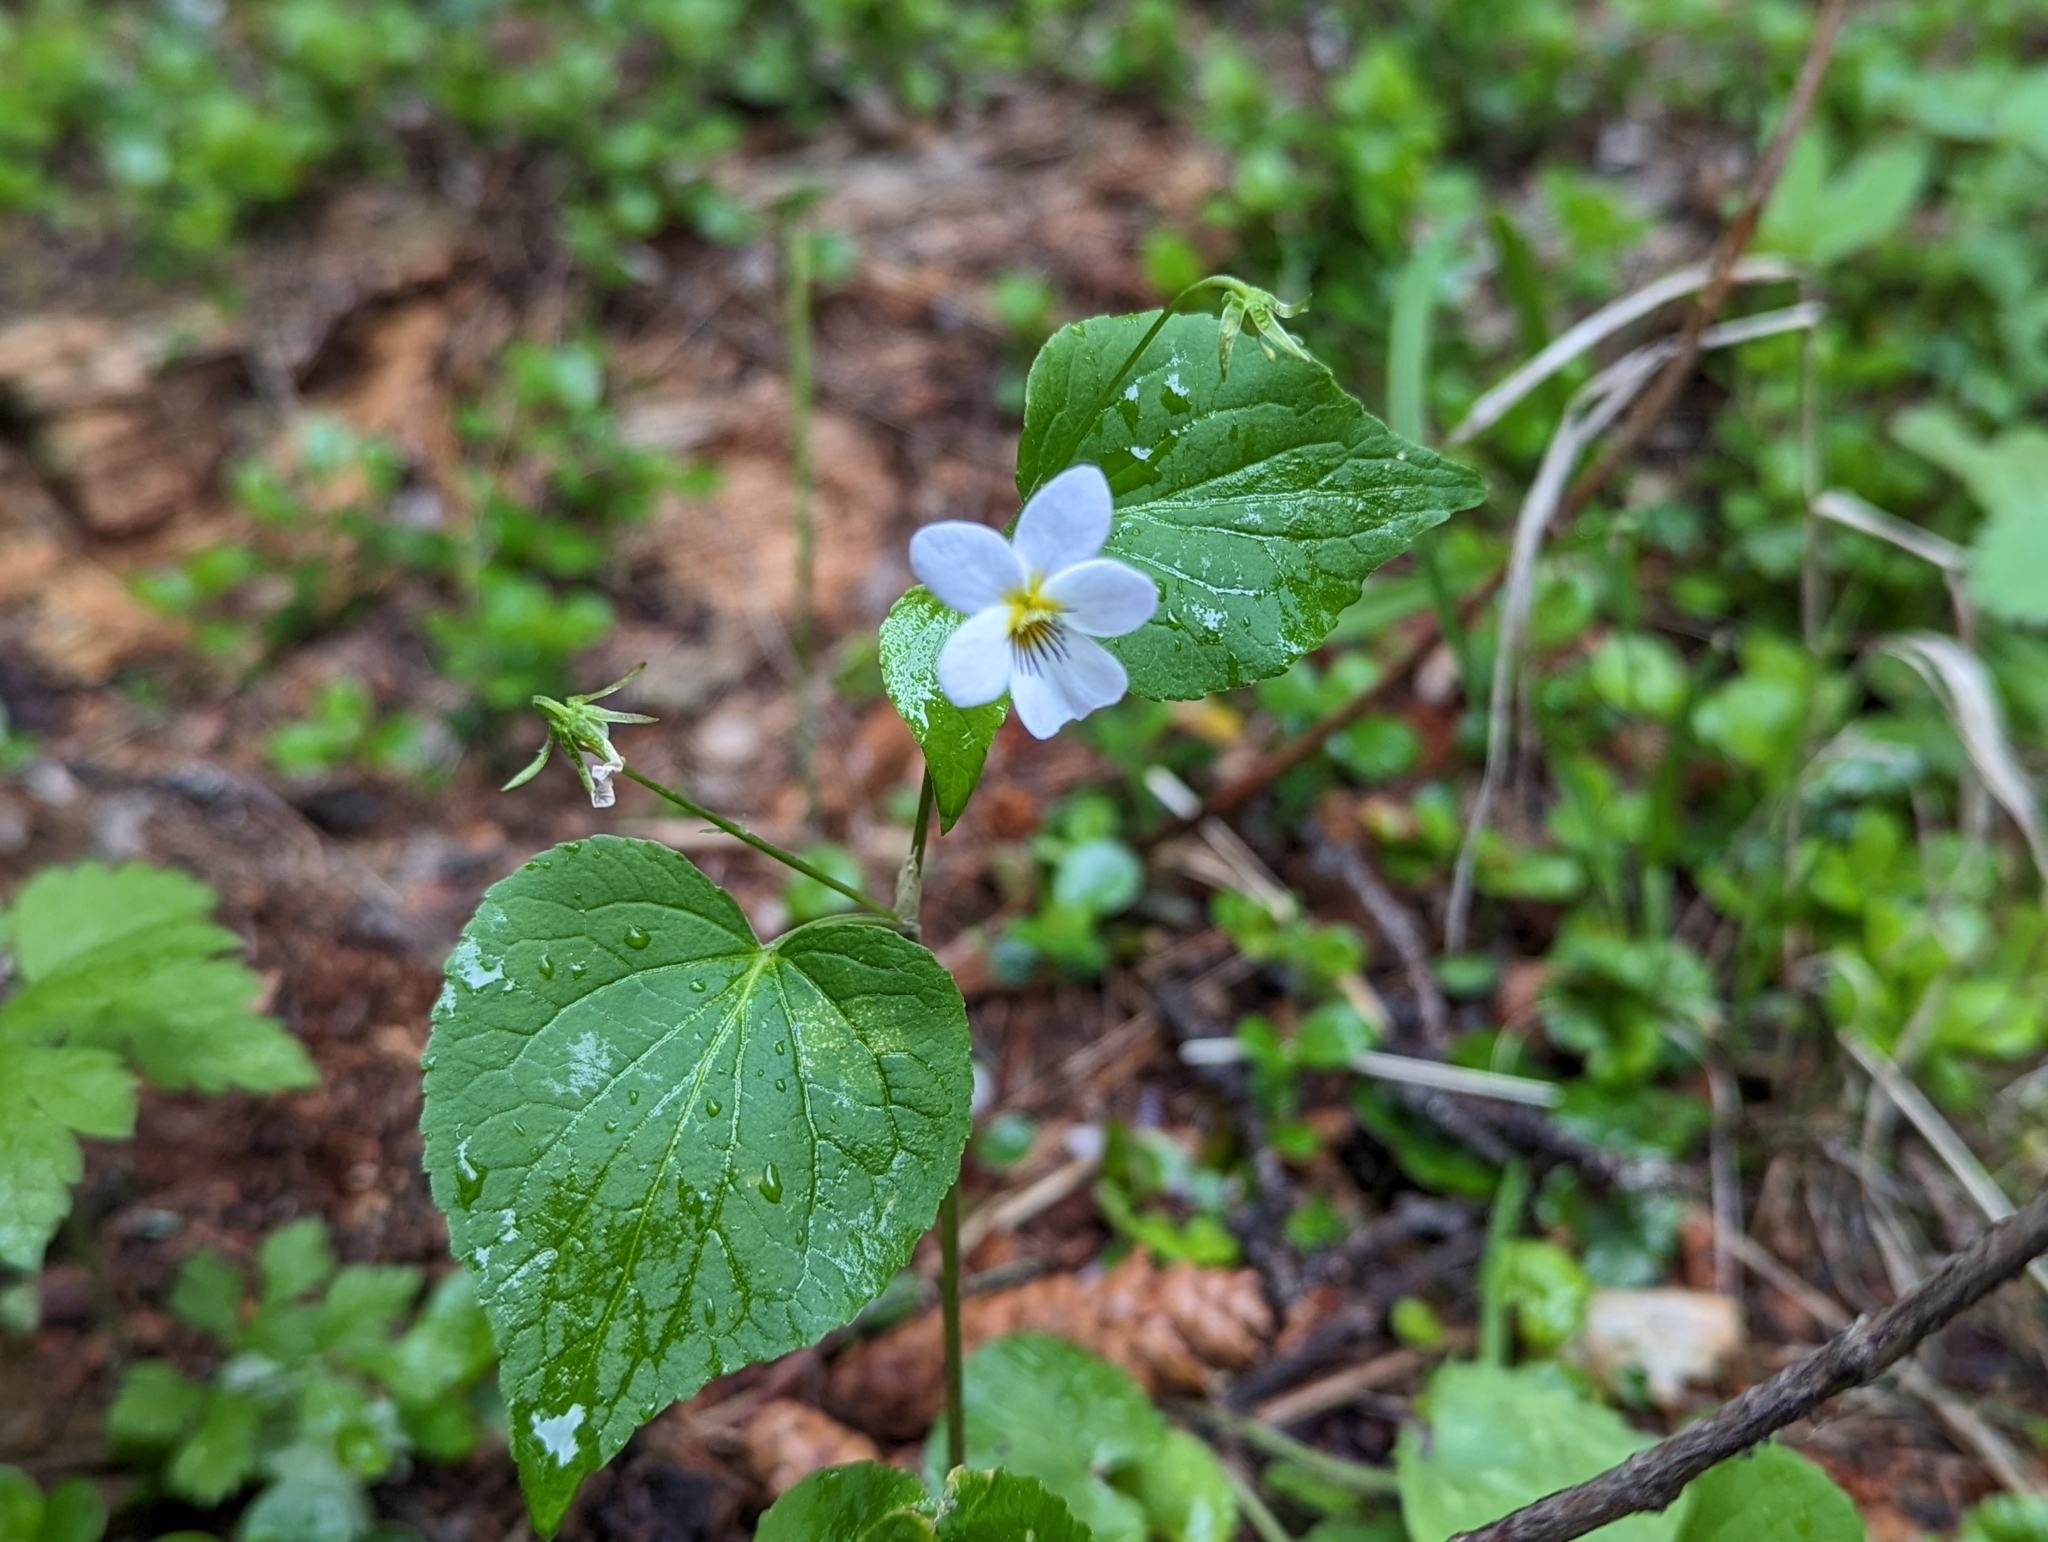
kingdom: Plantae
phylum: Tracheophyta
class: Magnoliopsida
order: Malpighiales
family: Violaceae
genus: Viola
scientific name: Viola canadensis
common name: Canada violet
